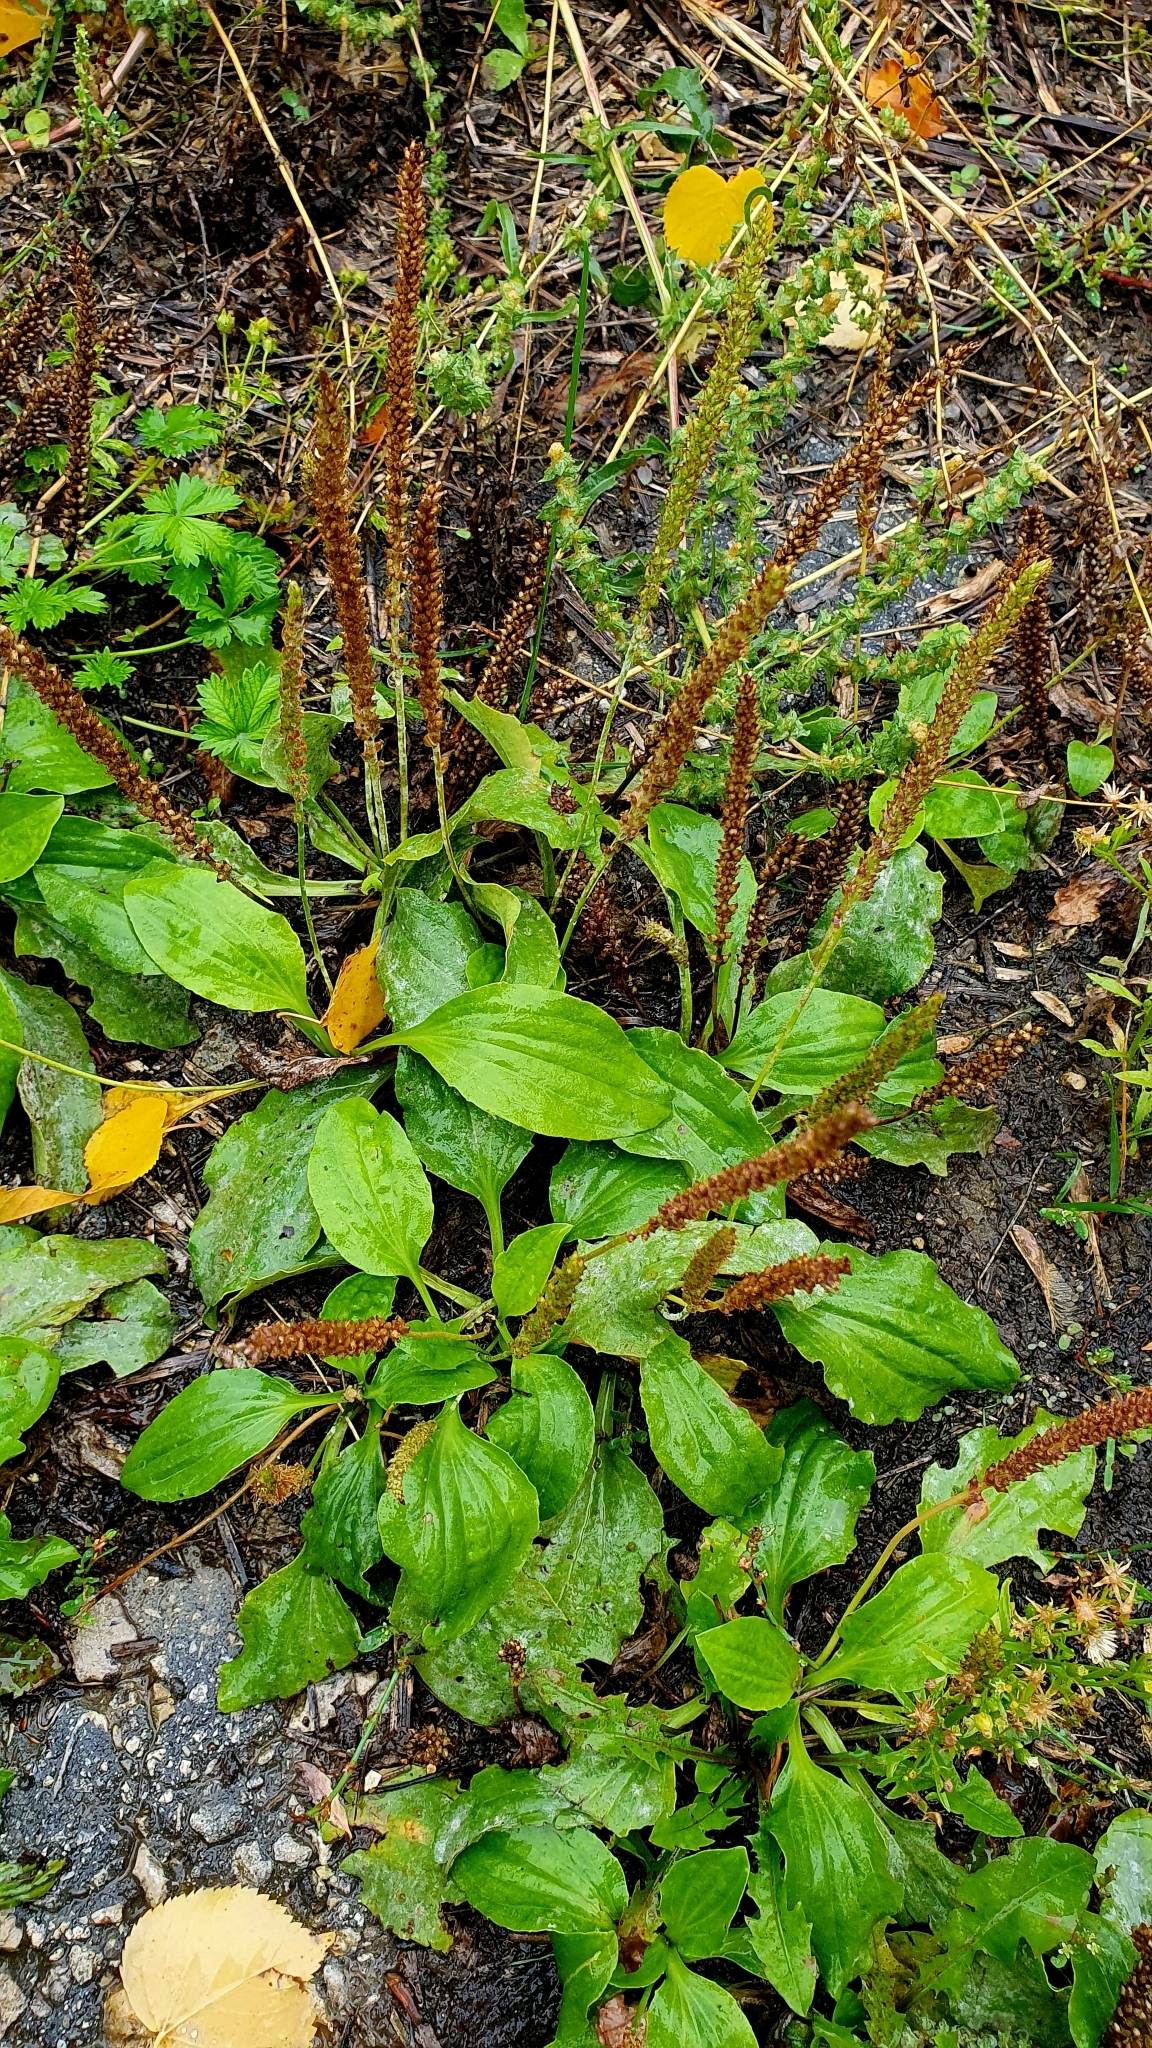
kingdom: Plantae
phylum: Tracheophyta
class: Magnoliopsida
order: Lamiales
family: Plantaginaceae
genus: Plantago
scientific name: Plantago major
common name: Common plantain
